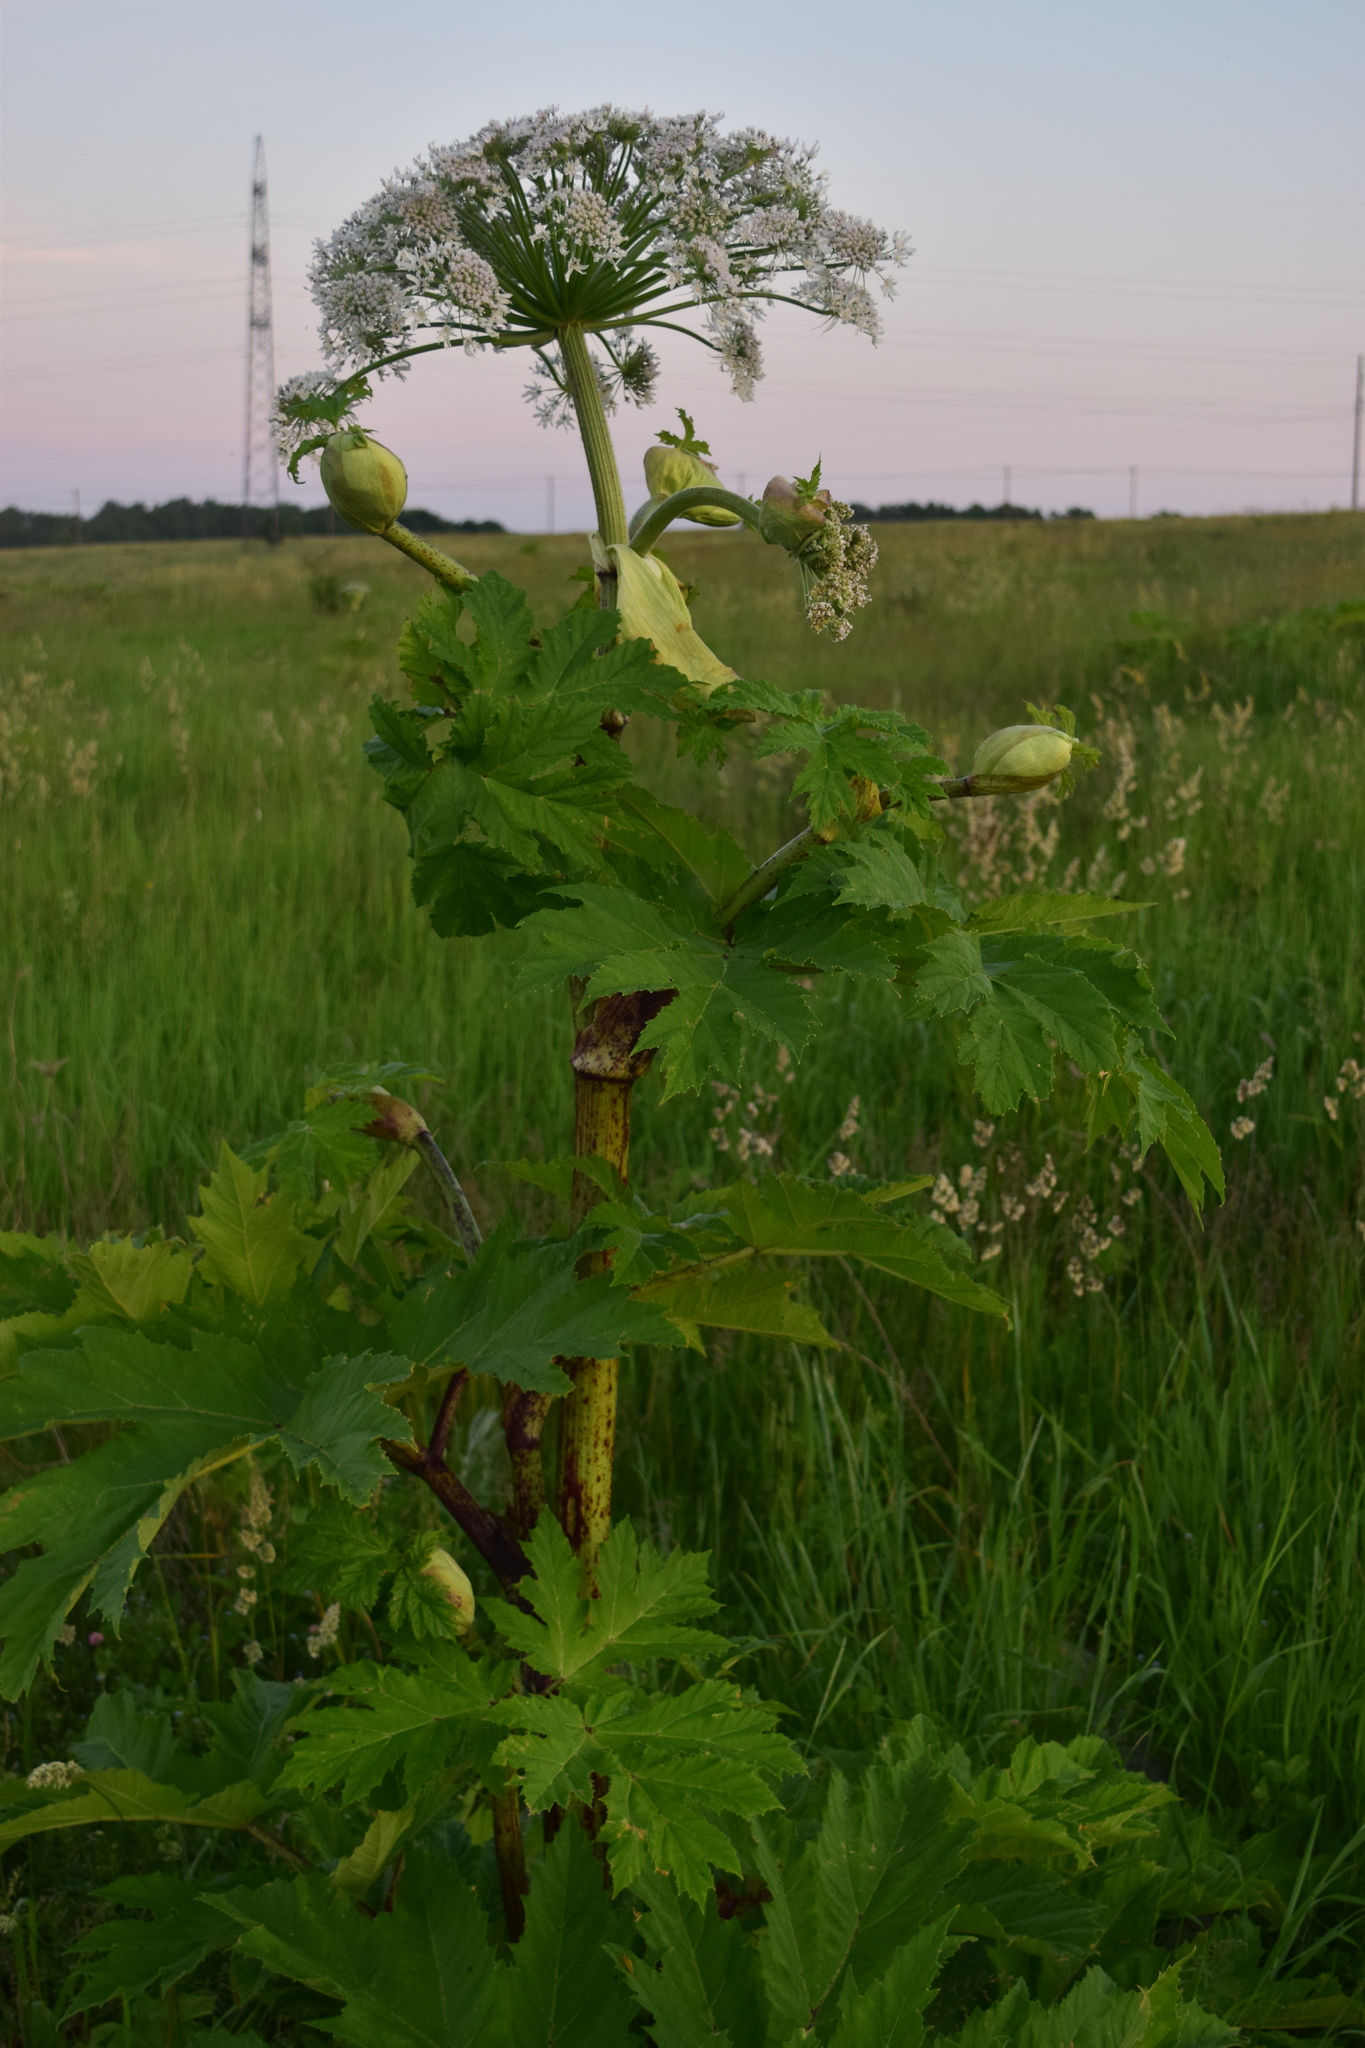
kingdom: Plantae
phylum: Tracheophyta
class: Magnoliopsida
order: Apiales
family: Apiaceae
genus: Heracleum
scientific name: Heracleum sosnowskyi
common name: Sosnowsky's hogweed
